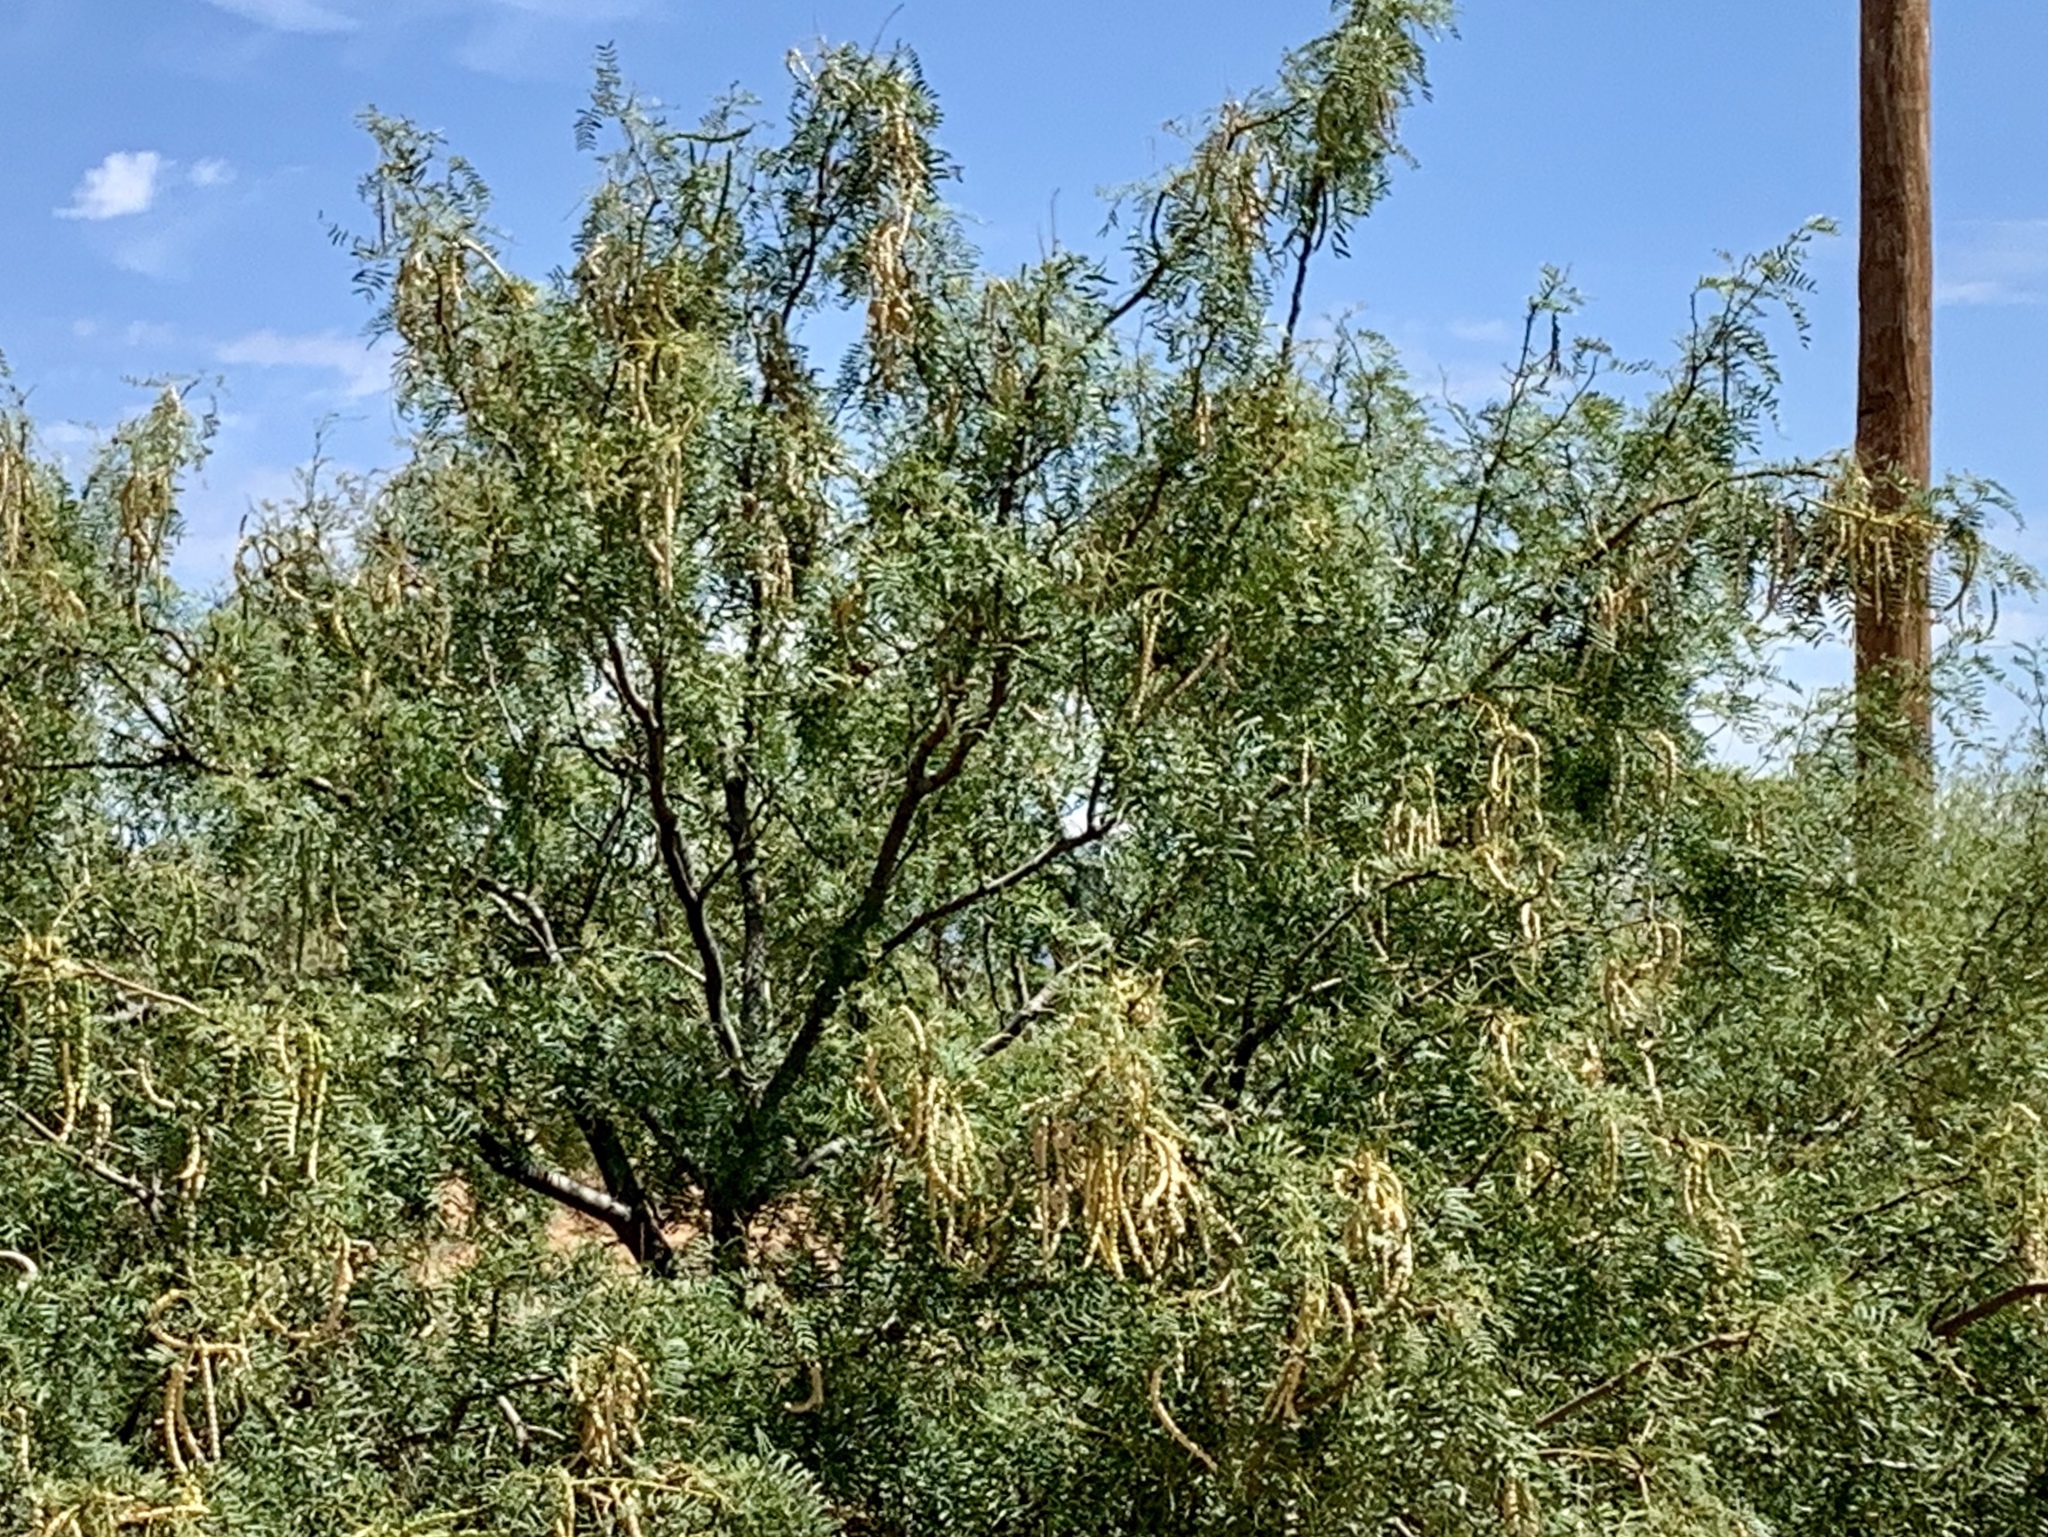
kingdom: Plantae
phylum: Tracheophyta
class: Magnoliopsida
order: Fabales
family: Fabaceae
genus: Prosopis
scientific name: Prosopis glandulosa
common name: Honey mesquite
